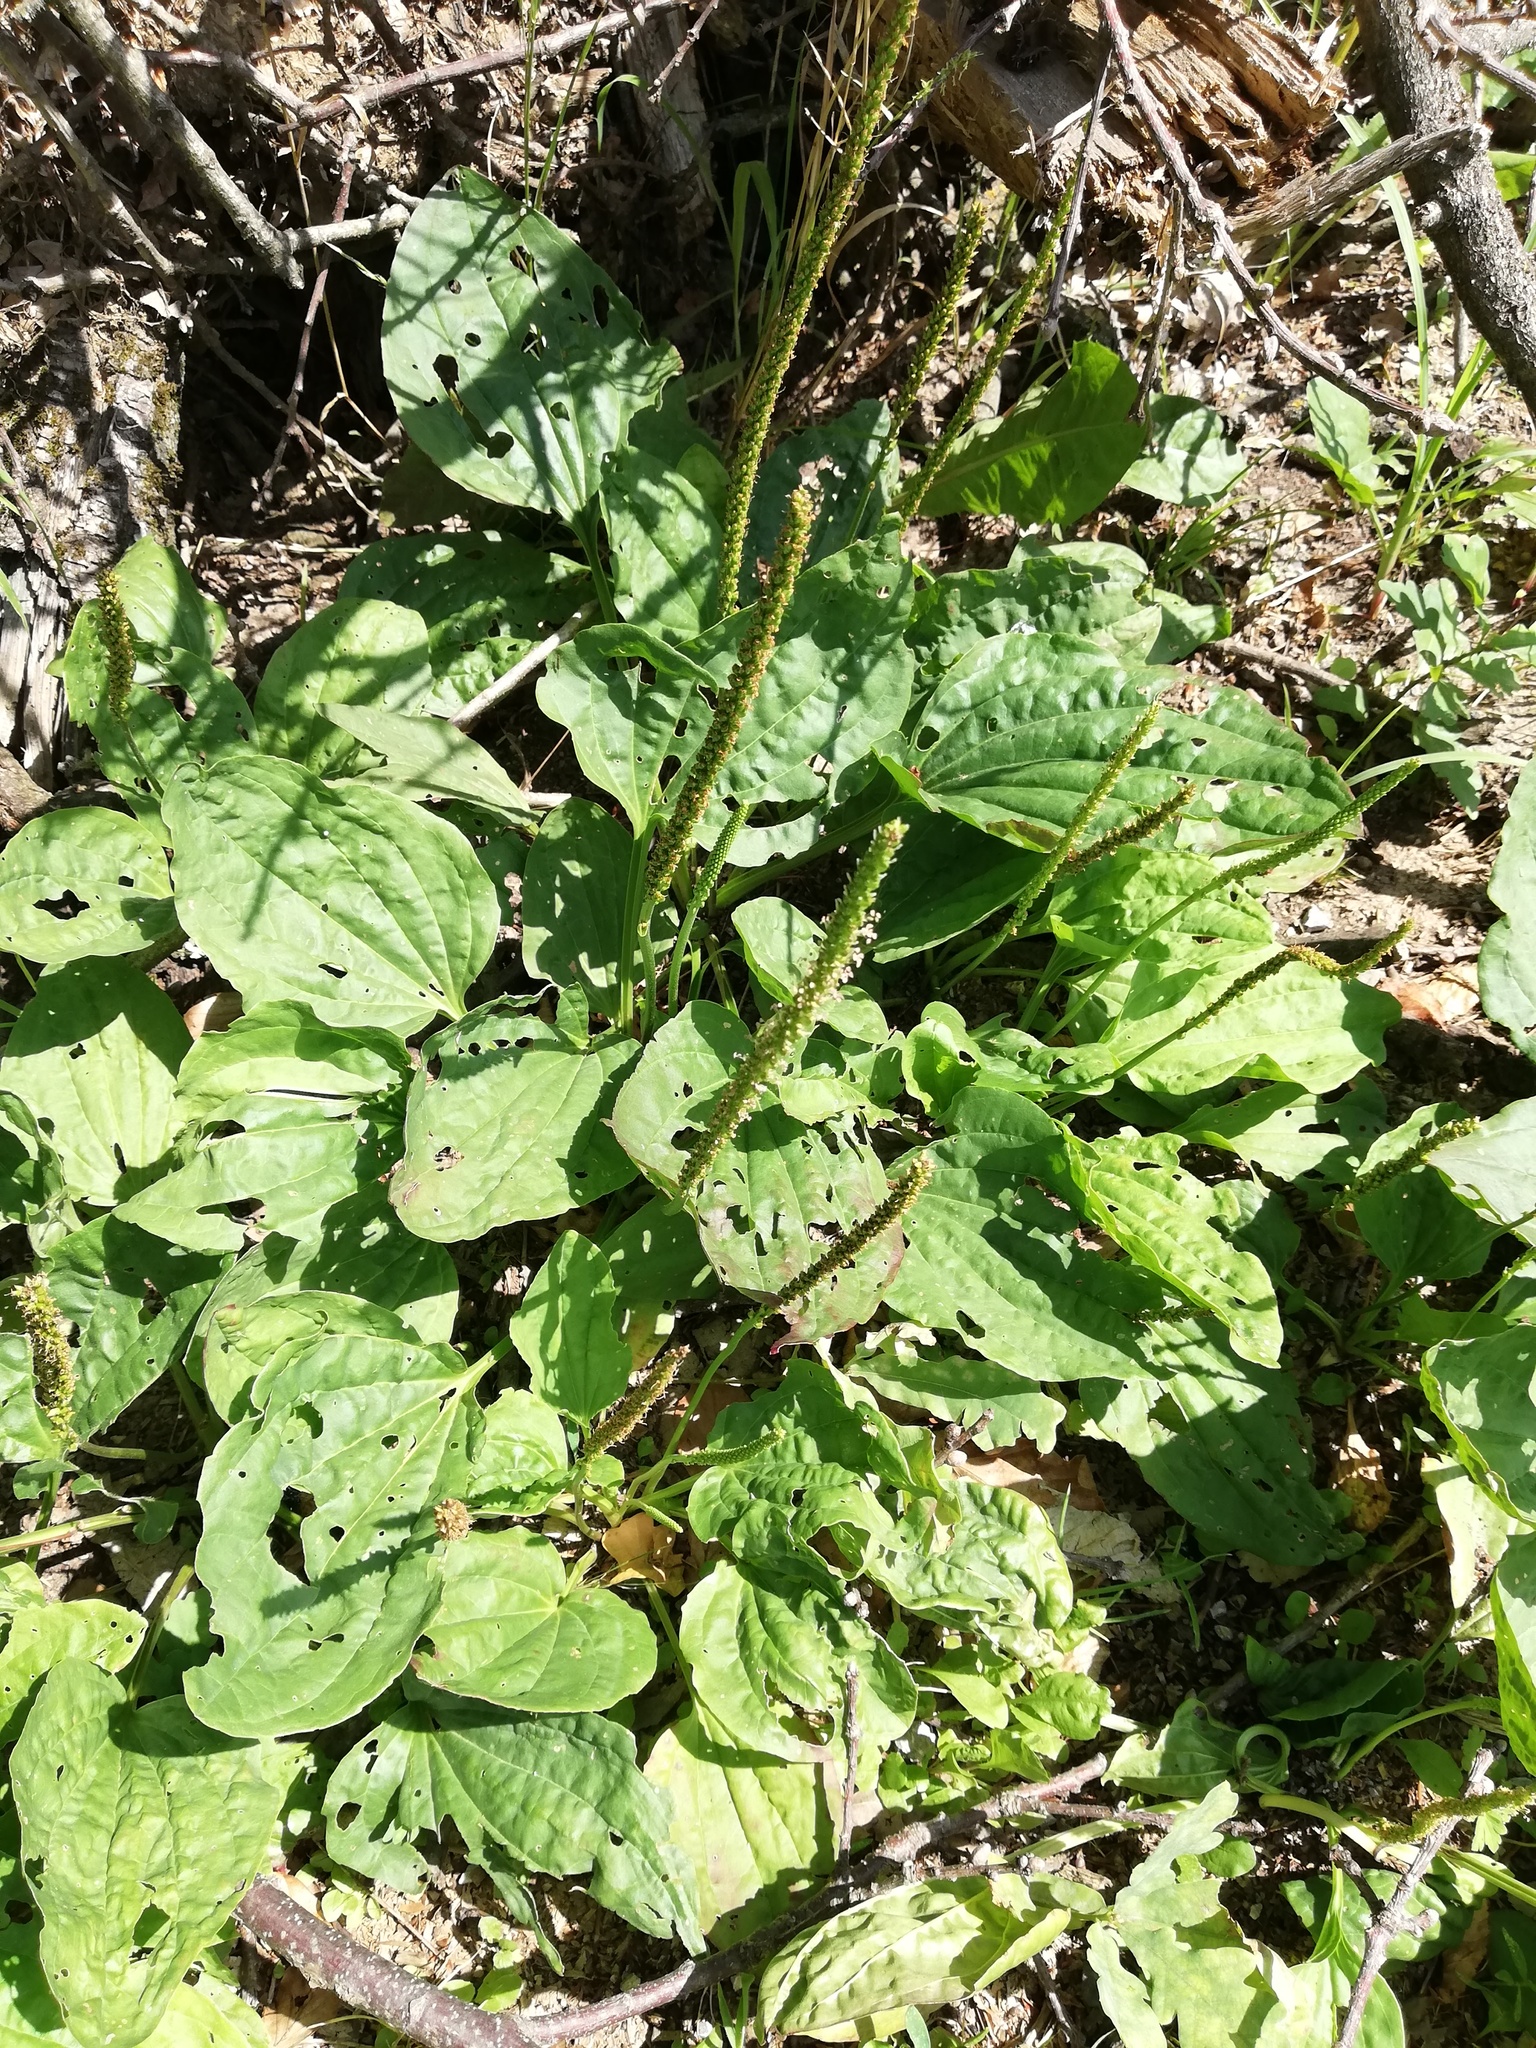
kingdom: Plantae
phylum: Tracheophyta
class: Magnoliopsida
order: Lamiales
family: Plantaginaceae
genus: Plantago
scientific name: Plantago major
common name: Common plantain
